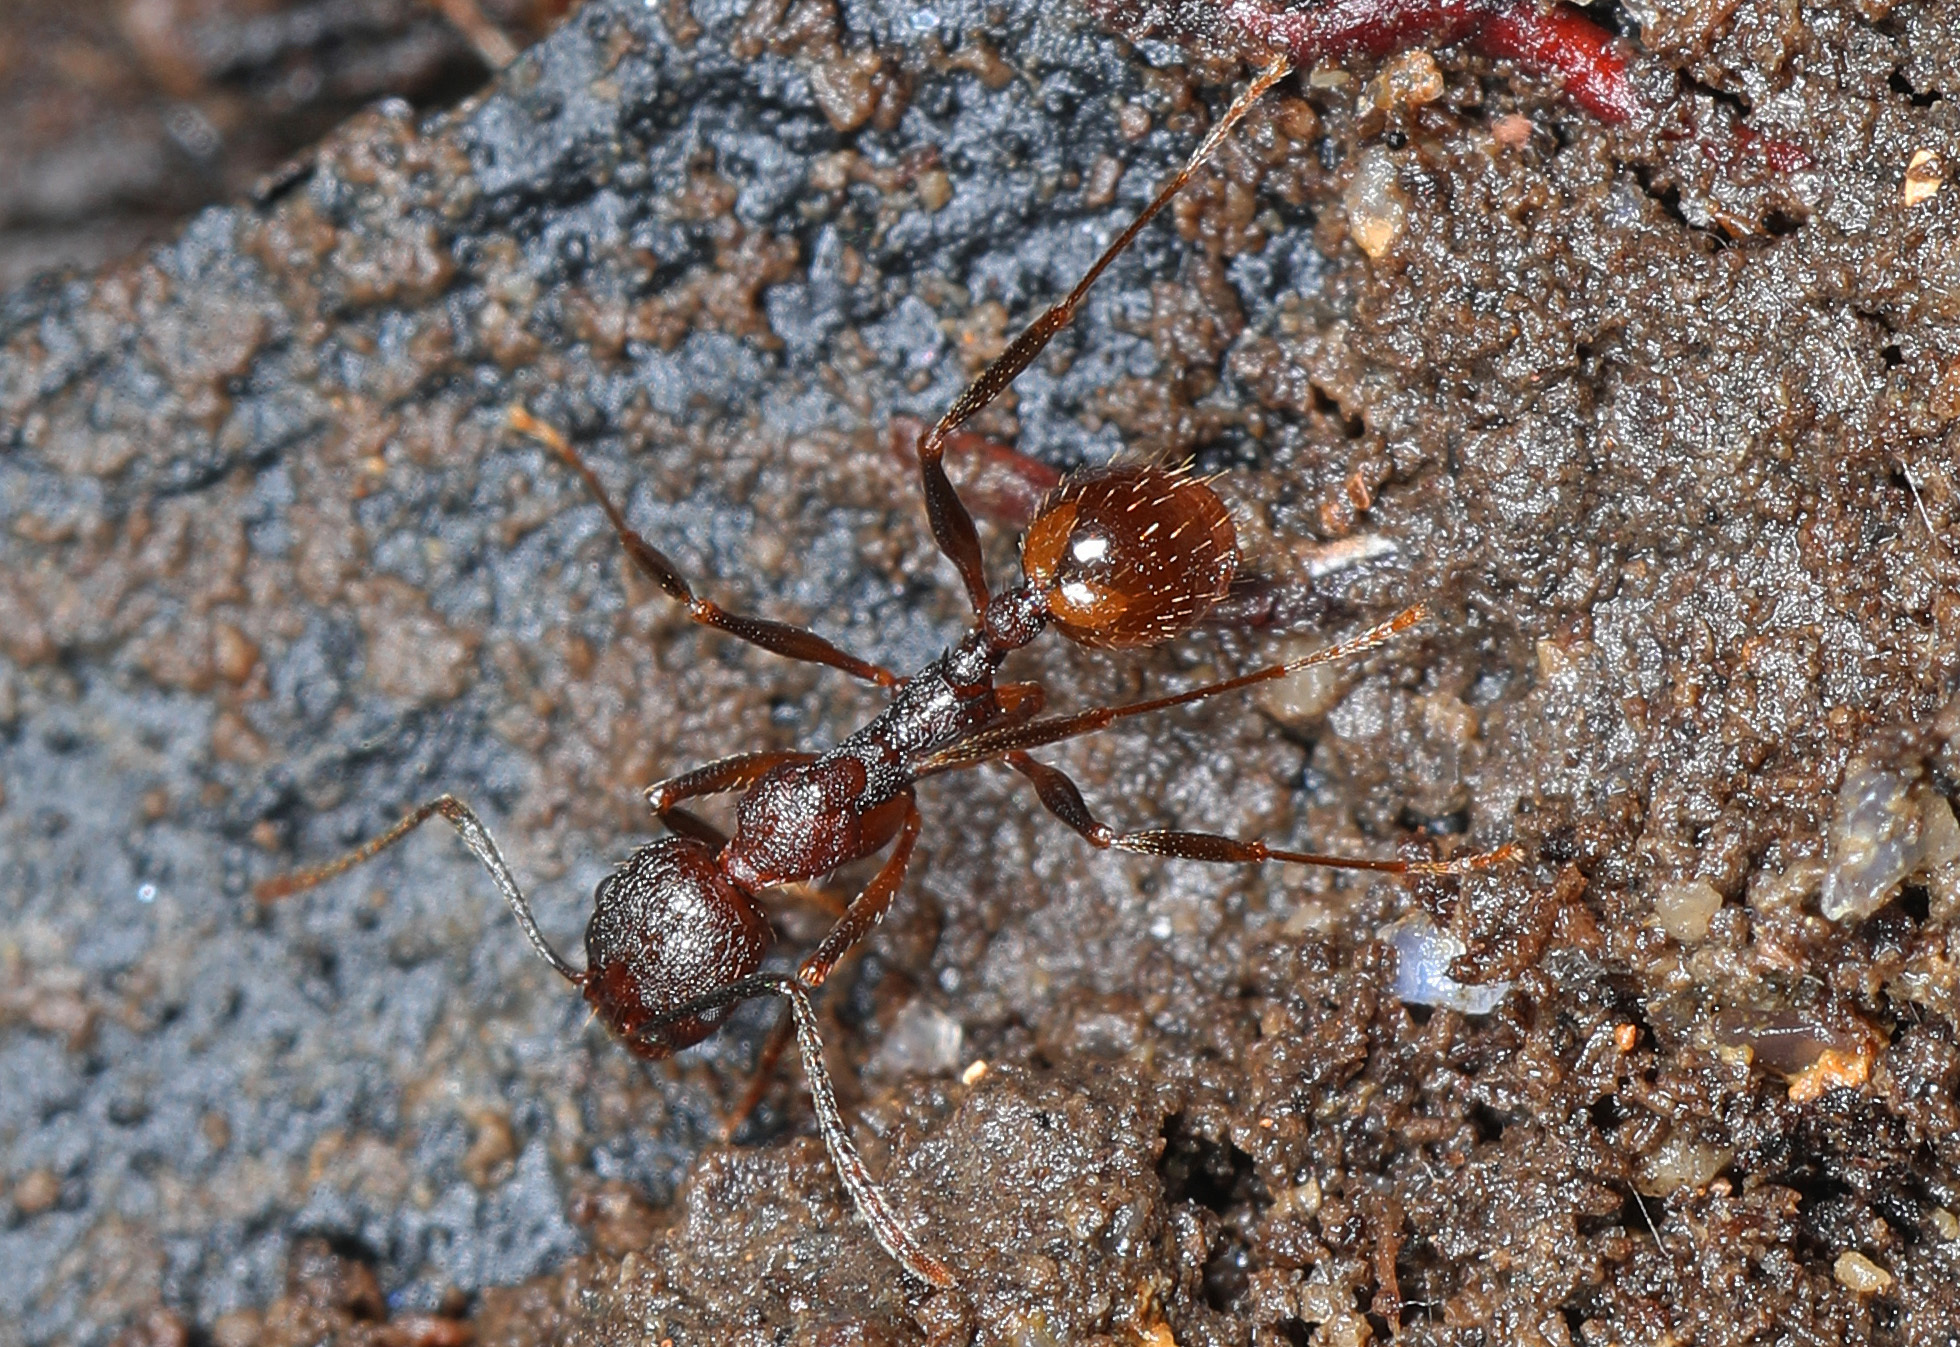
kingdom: Animalia
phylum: Arthropoda
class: Insecta
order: Hymenoptera
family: Formicidae
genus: Aphaenogaster
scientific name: Aphaenogaster fulva
